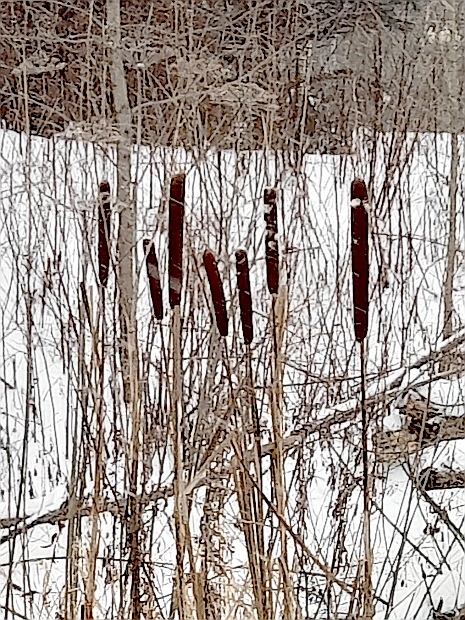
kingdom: Plantae
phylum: Tracheophyta
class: Liliopsida
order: Poales
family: Typhaceae
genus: Typha
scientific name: Typha latifolia
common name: Broadleaf cattail
